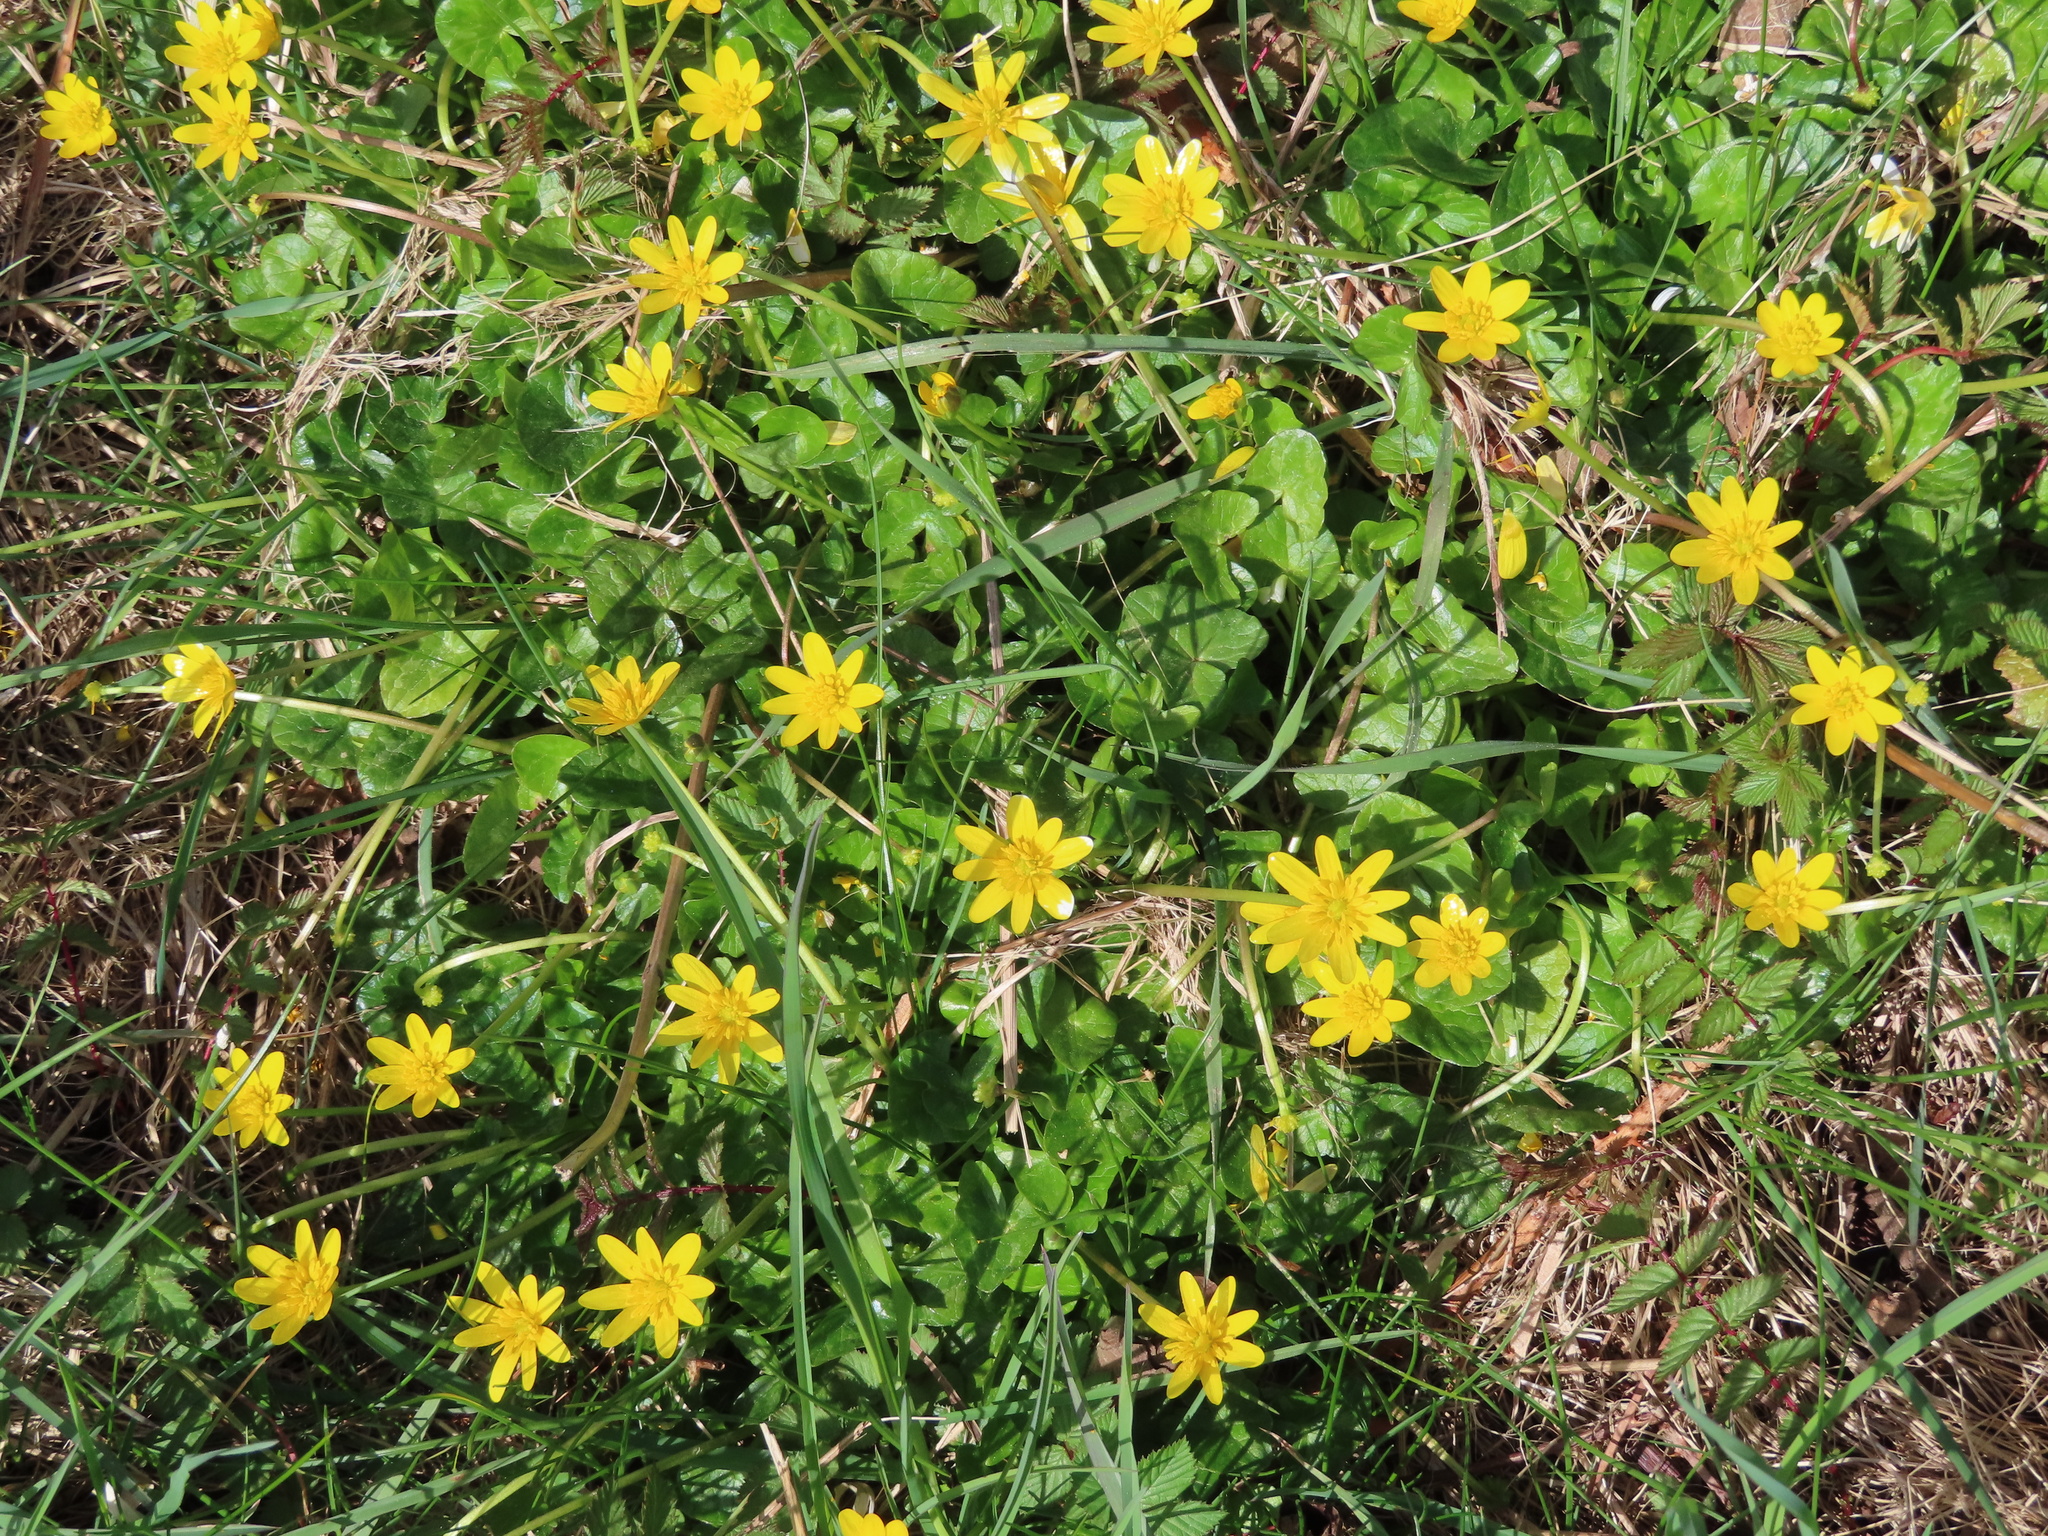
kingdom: Plantae
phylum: Tracheophyta
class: Magnoliopsida
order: Ranunculales
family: Ranunculaceae
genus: Ficaria
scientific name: Ficaria verna
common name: Lesser celandine
